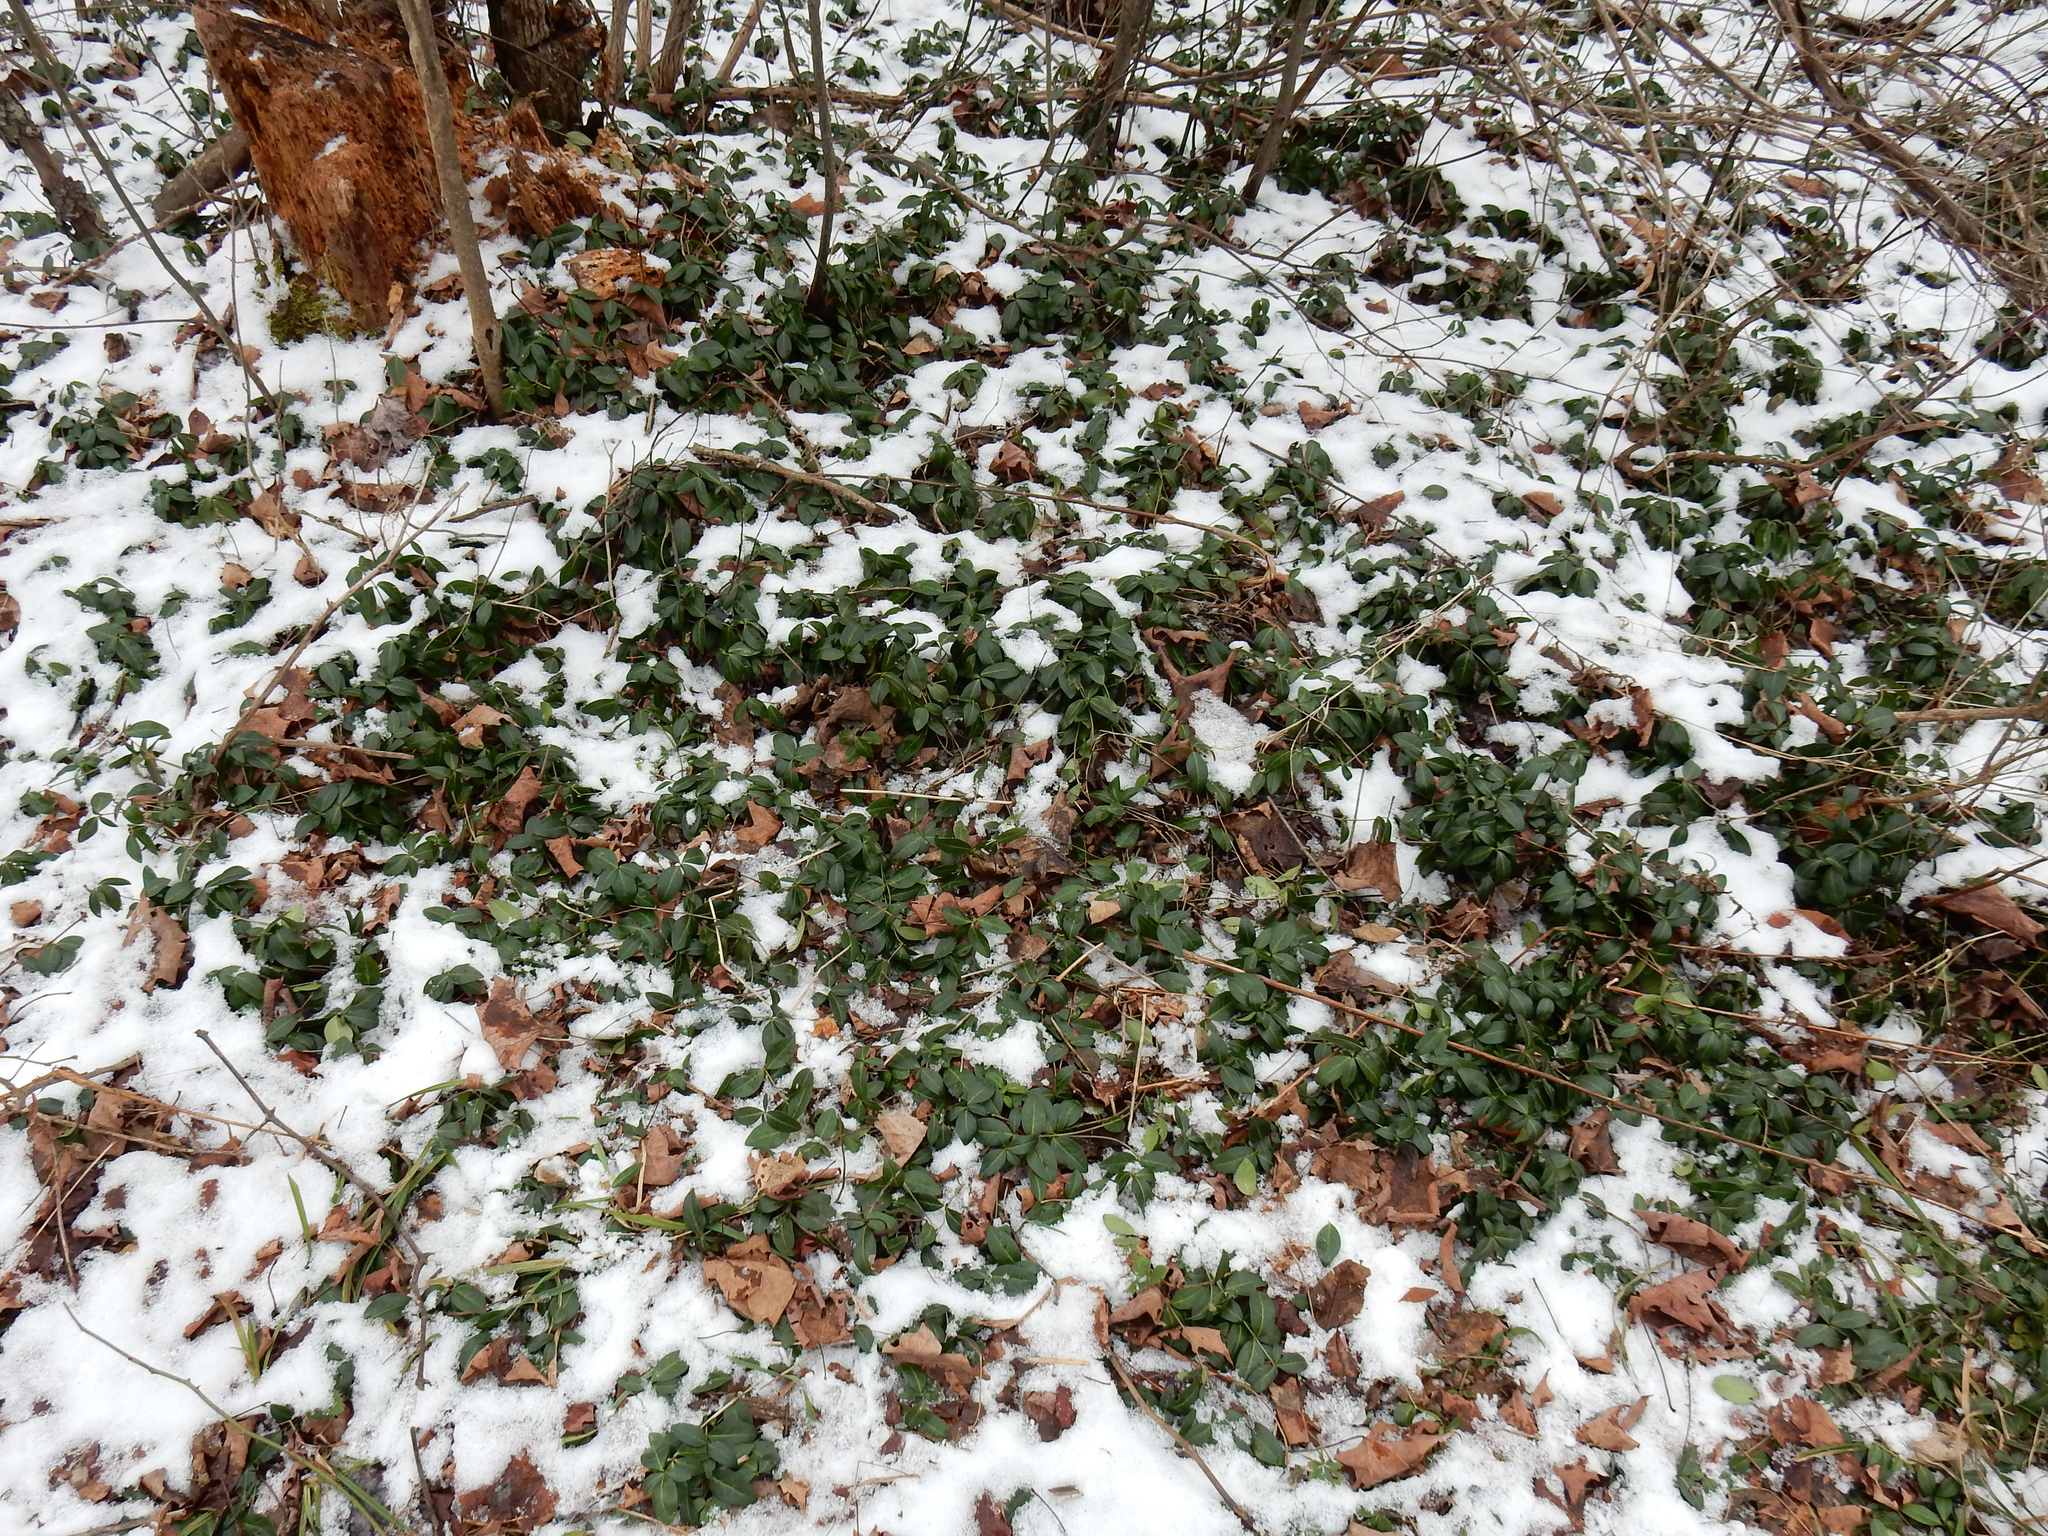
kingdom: Plantae
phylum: Tracheophyta
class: Magnoliopsida
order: Gentianales
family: Apocynaceae
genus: Vinca
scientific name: Vinca minor
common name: Lesser periwinkle
